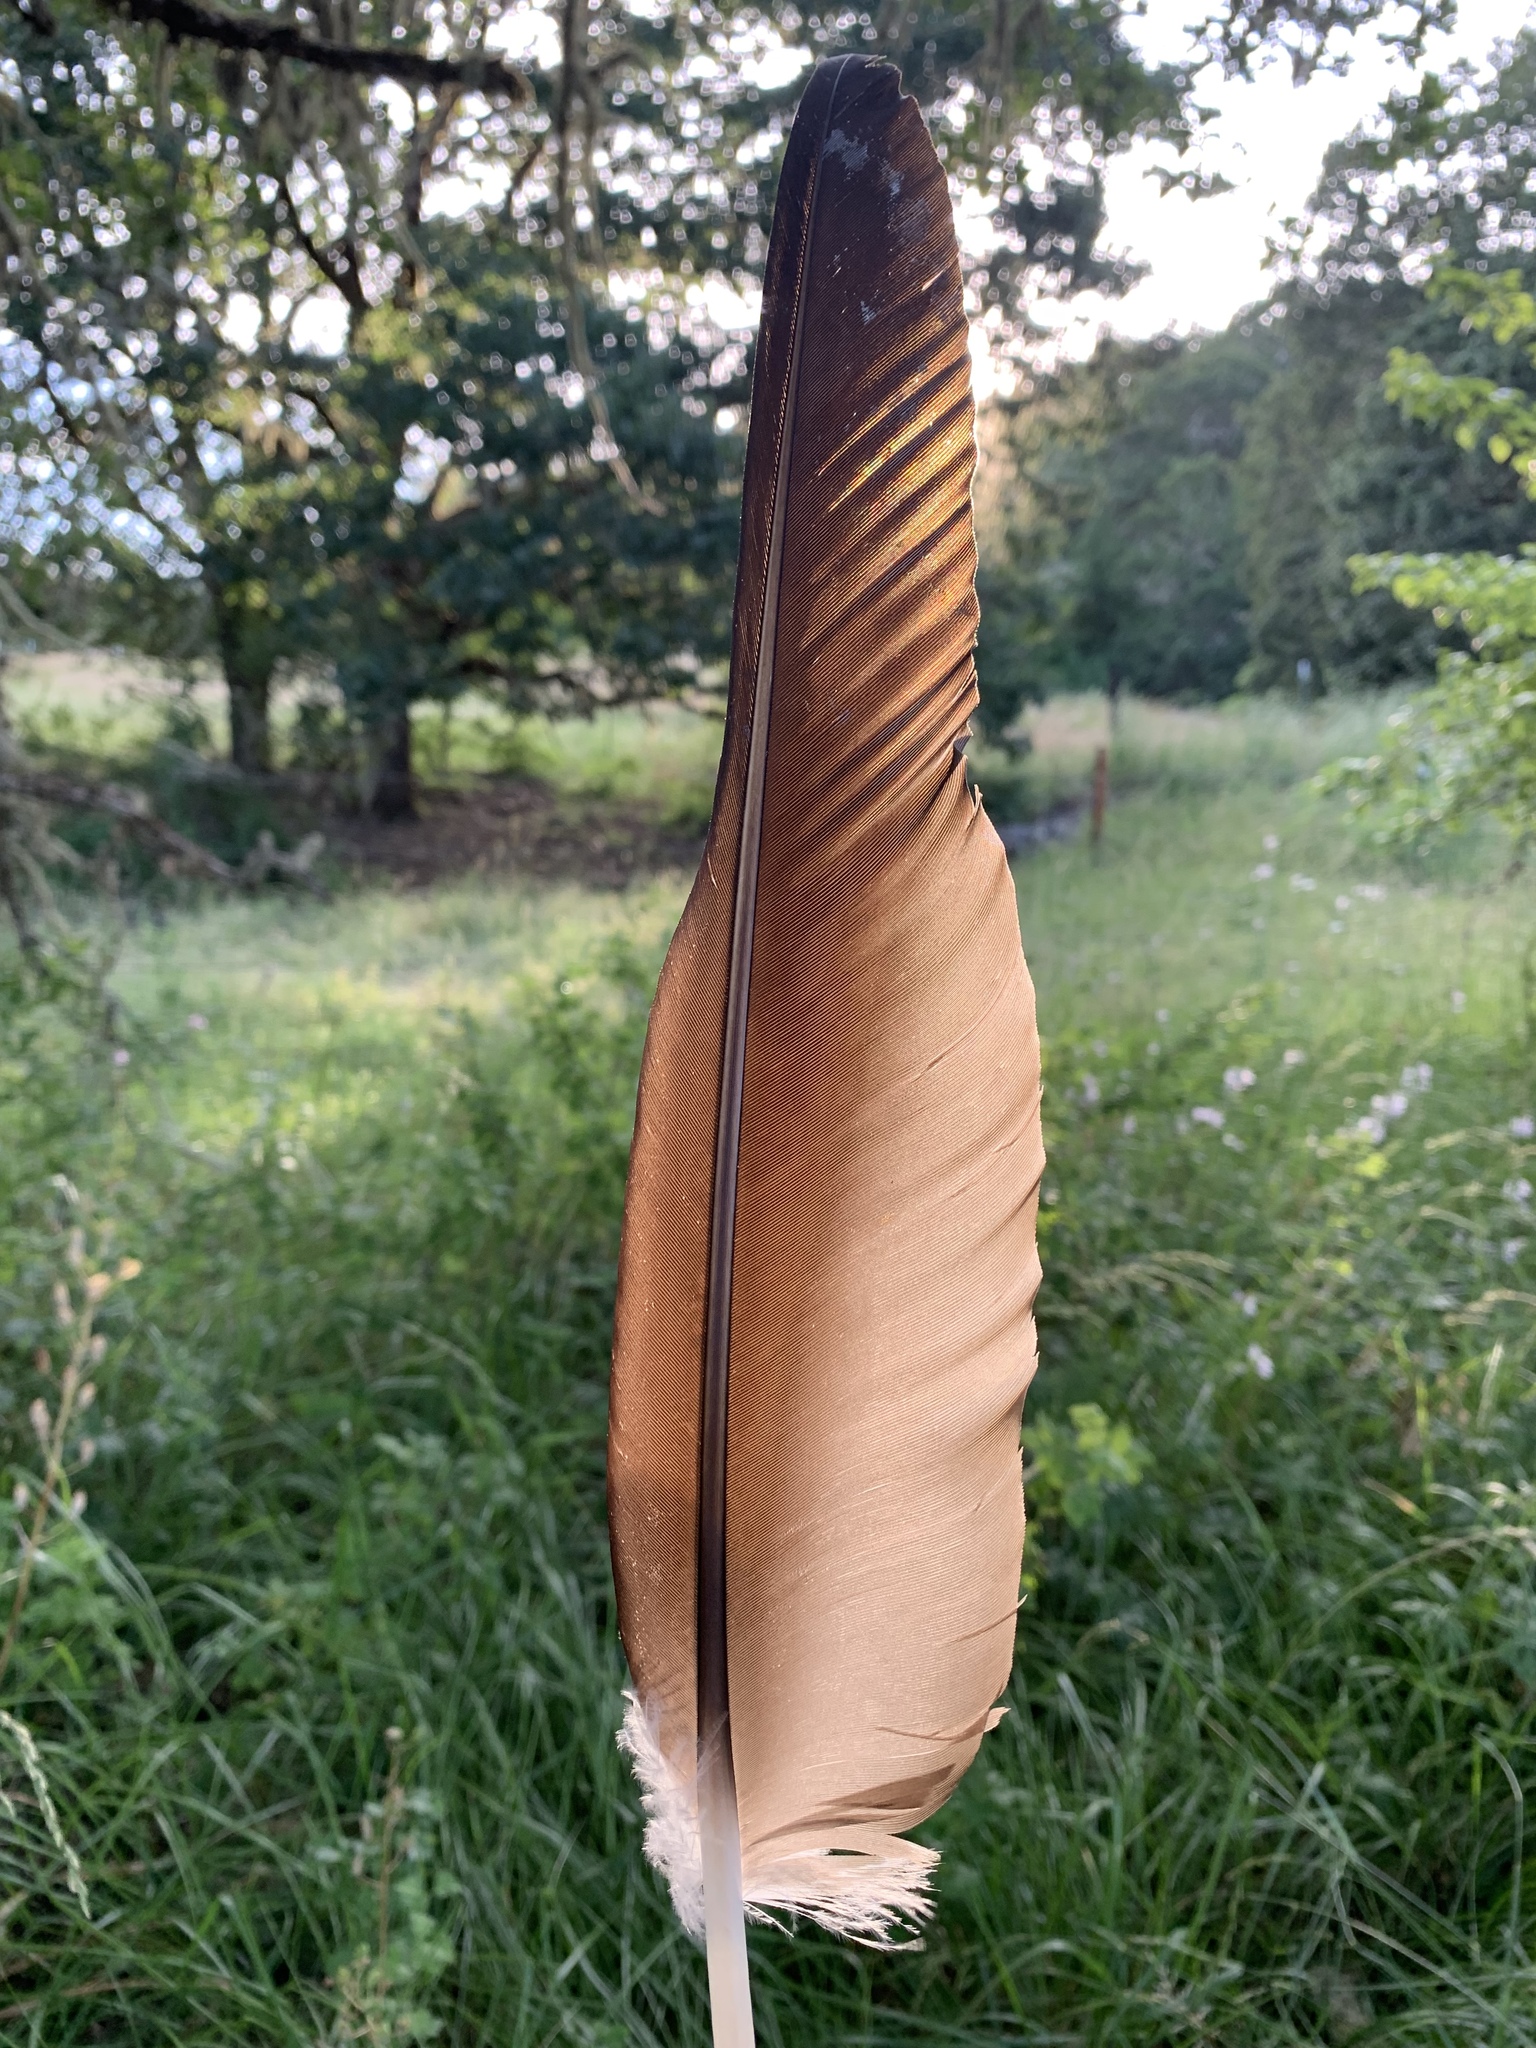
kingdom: Animalia
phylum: Chordata
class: Aves
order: Accipitriformes
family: Cathartidae
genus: Cathartes
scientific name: Cathartes aura
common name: Turkey vulture
